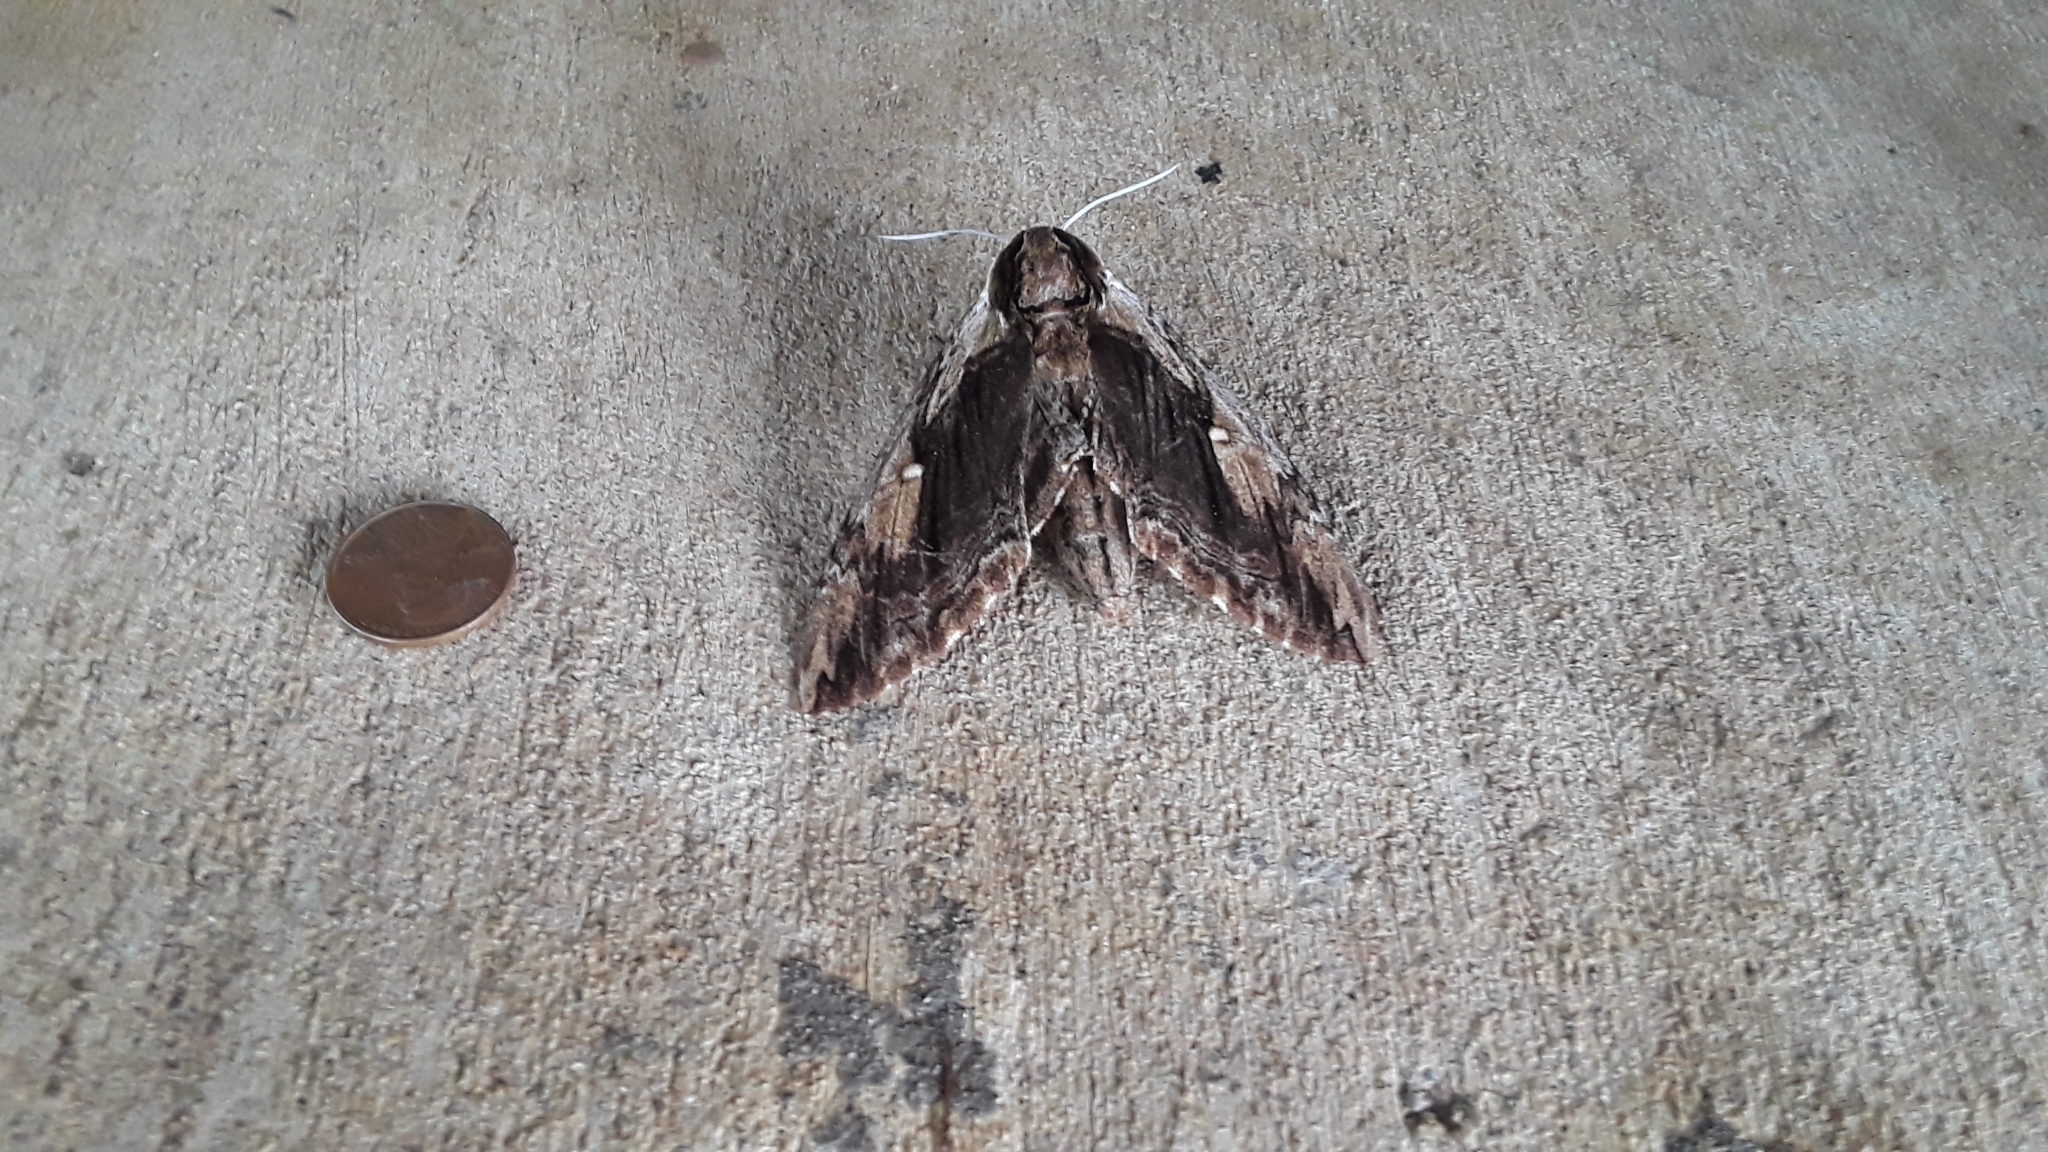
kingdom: Animalia
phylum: Arthropoda
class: Insecta
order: Lepidoptera
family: Sphingidae
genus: Ceratomia
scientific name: Ceratomia amyntor
